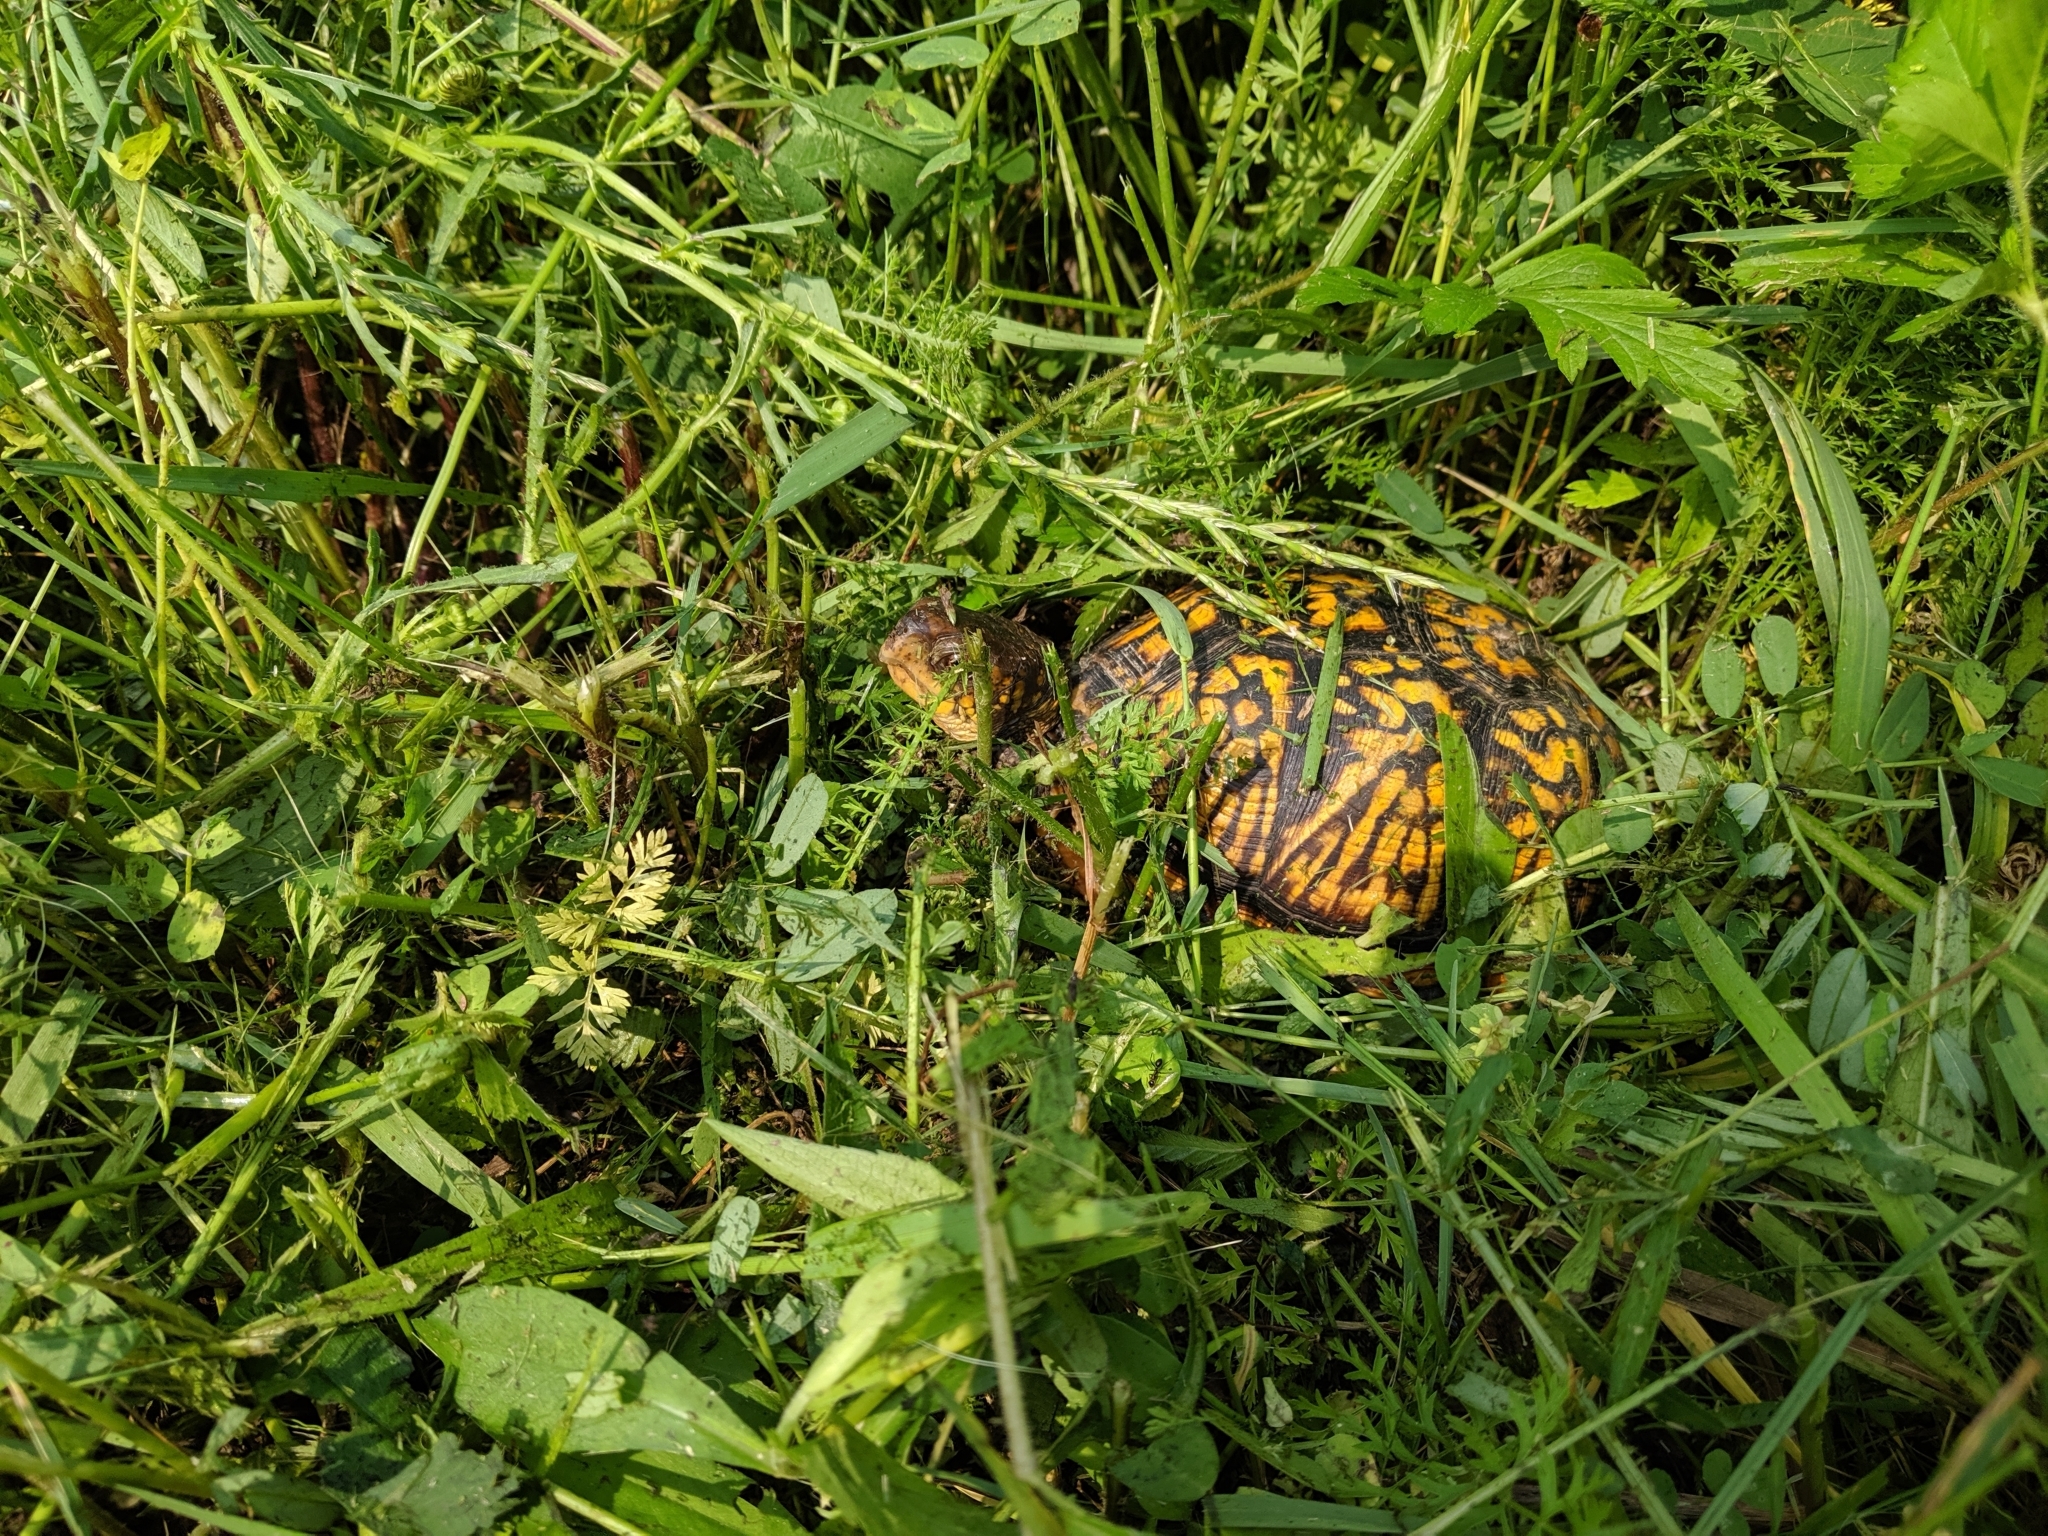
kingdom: Animalia
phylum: Chordata
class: Testudines
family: Emydidae
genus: Terrapene
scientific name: Terrapene carolina
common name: Common box turtle
